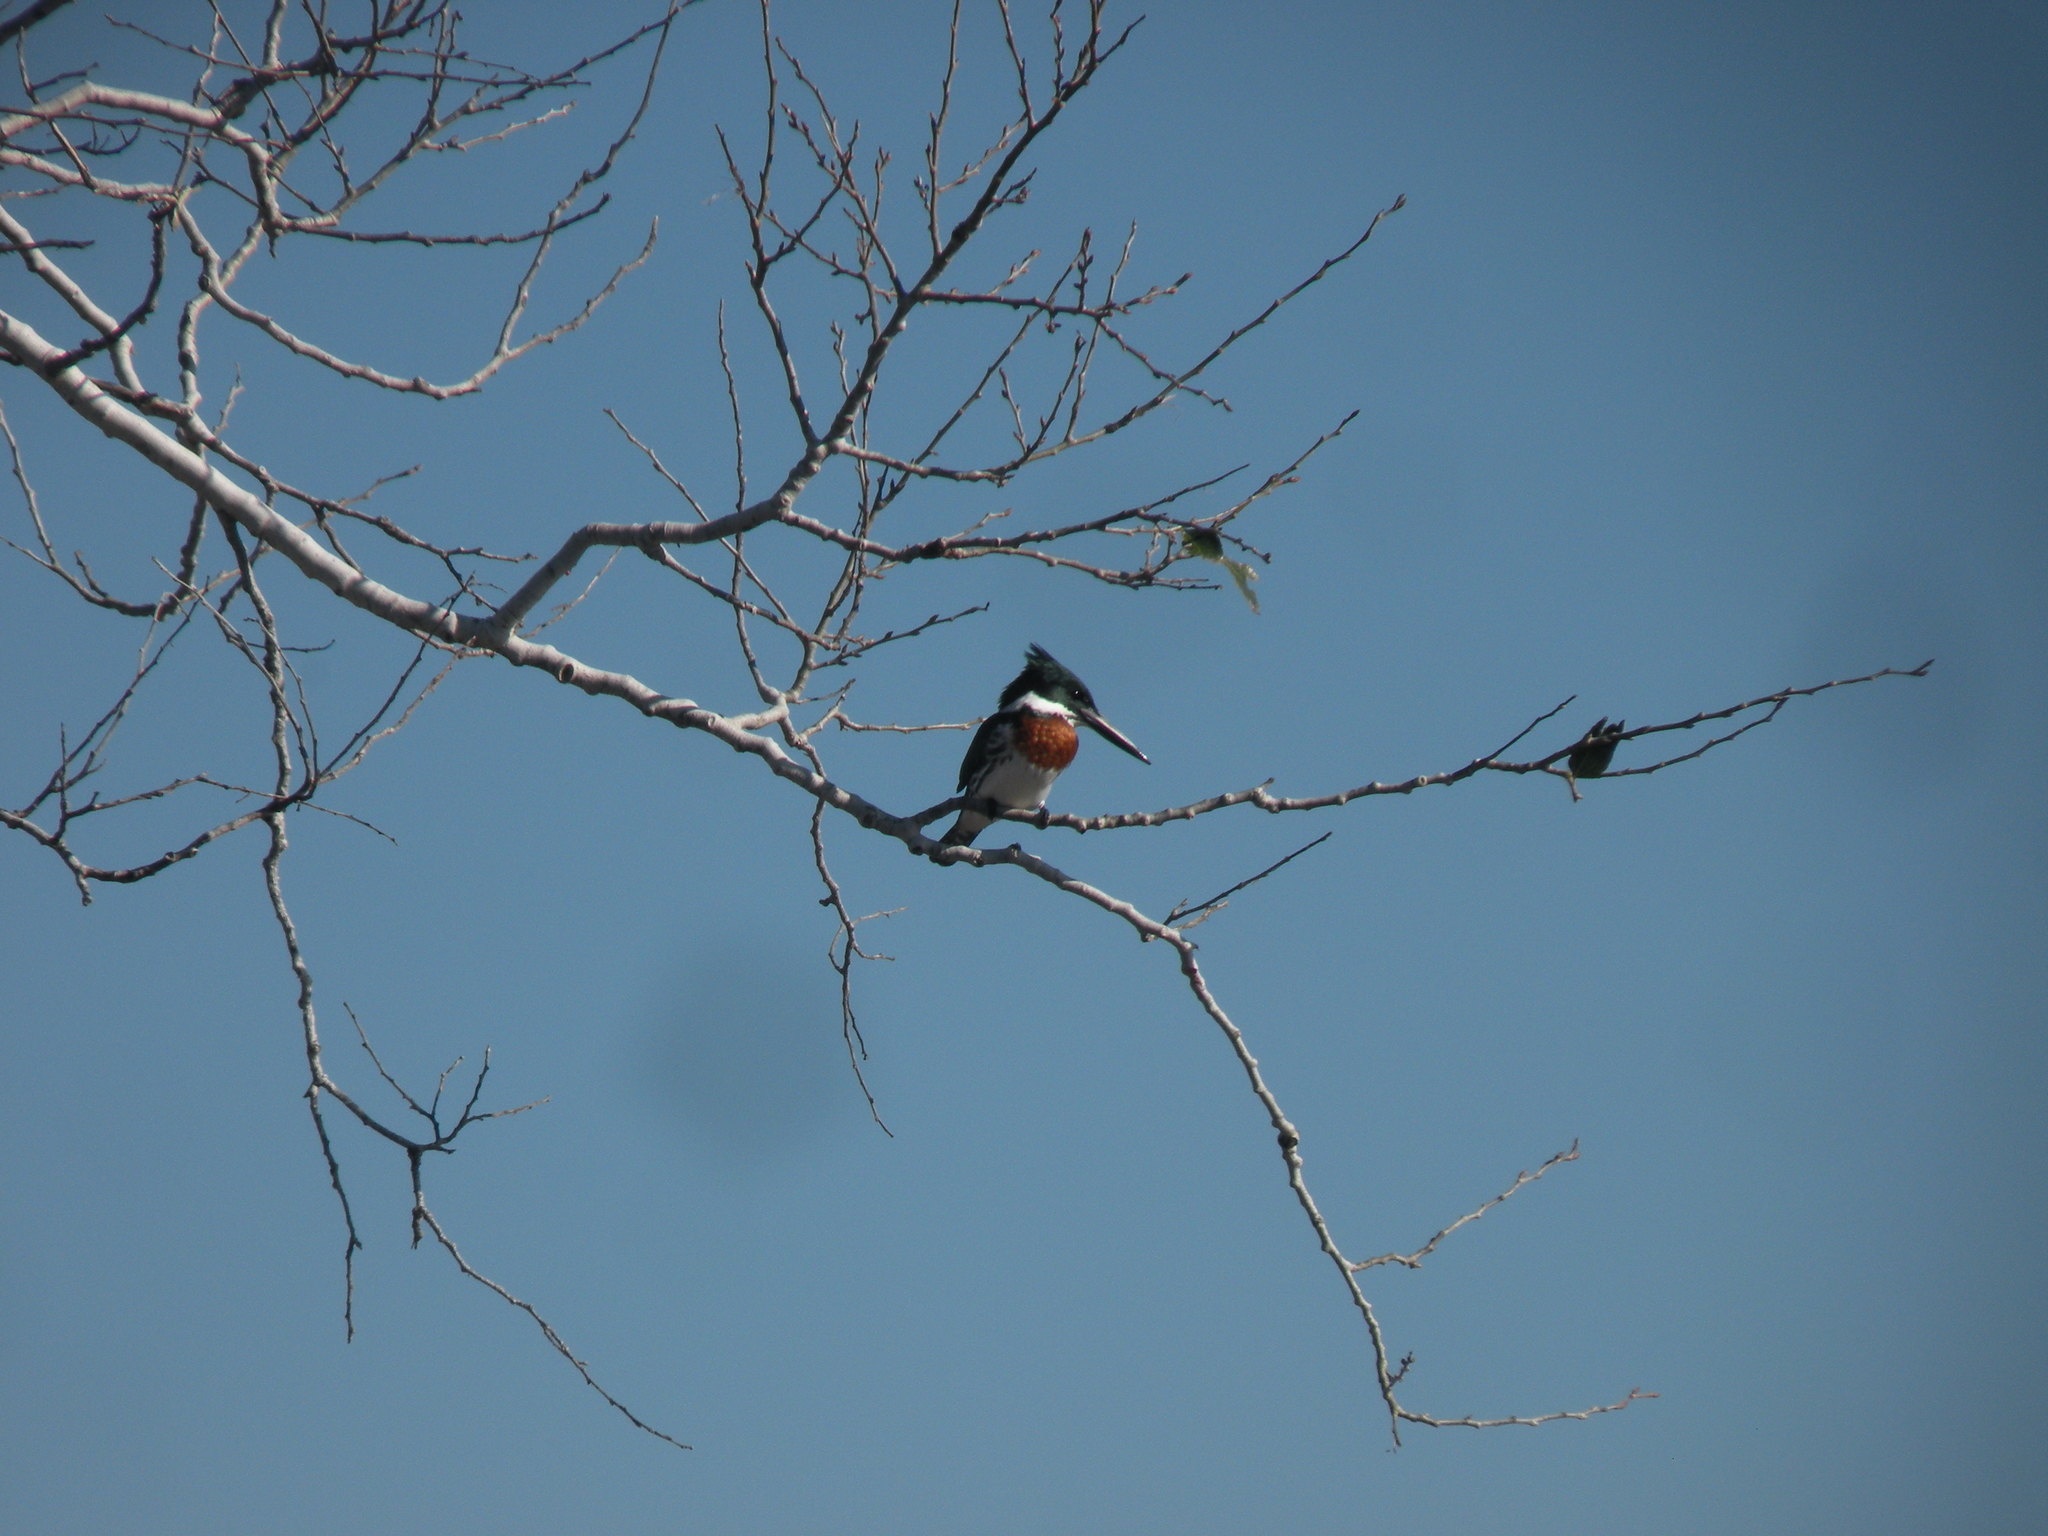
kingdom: Animalia
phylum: Chordata
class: Aves
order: Coraciiformes
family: Alcedinidae
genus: Chloroceryle
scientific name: Chloroceryle amazona
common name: Amazon kingfisher
